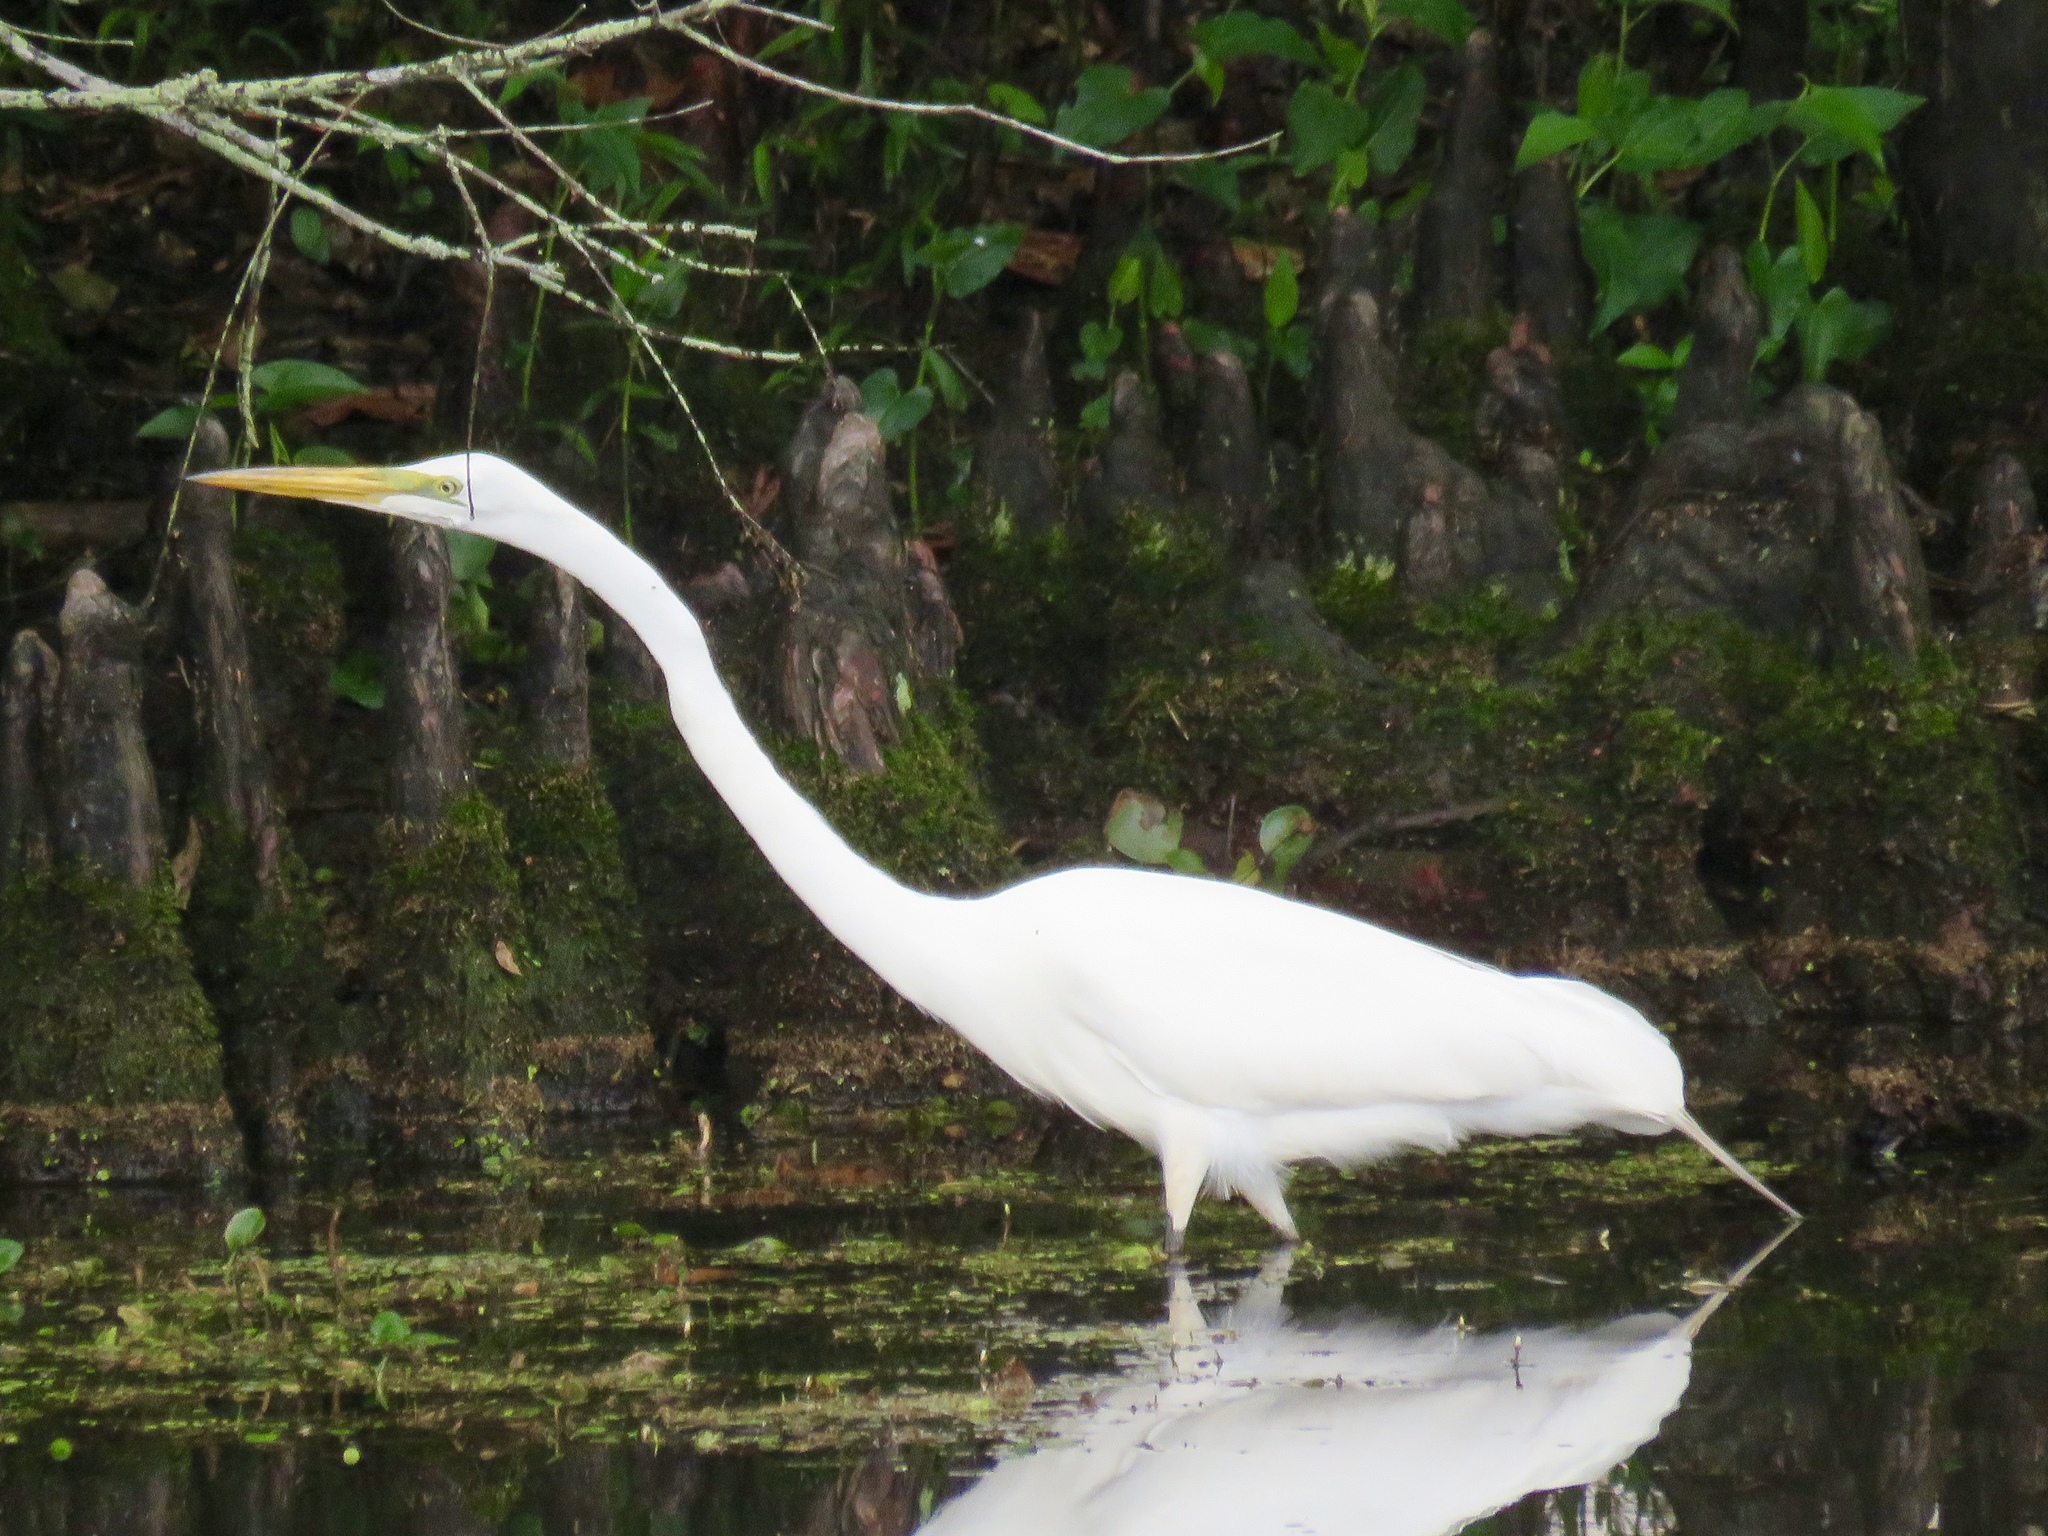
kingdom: Animalia
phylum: Chordata
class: Aves
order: Pelecaniformes
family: Ardeidae
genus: Ardea
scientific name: Ardea alba
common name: Great egret
